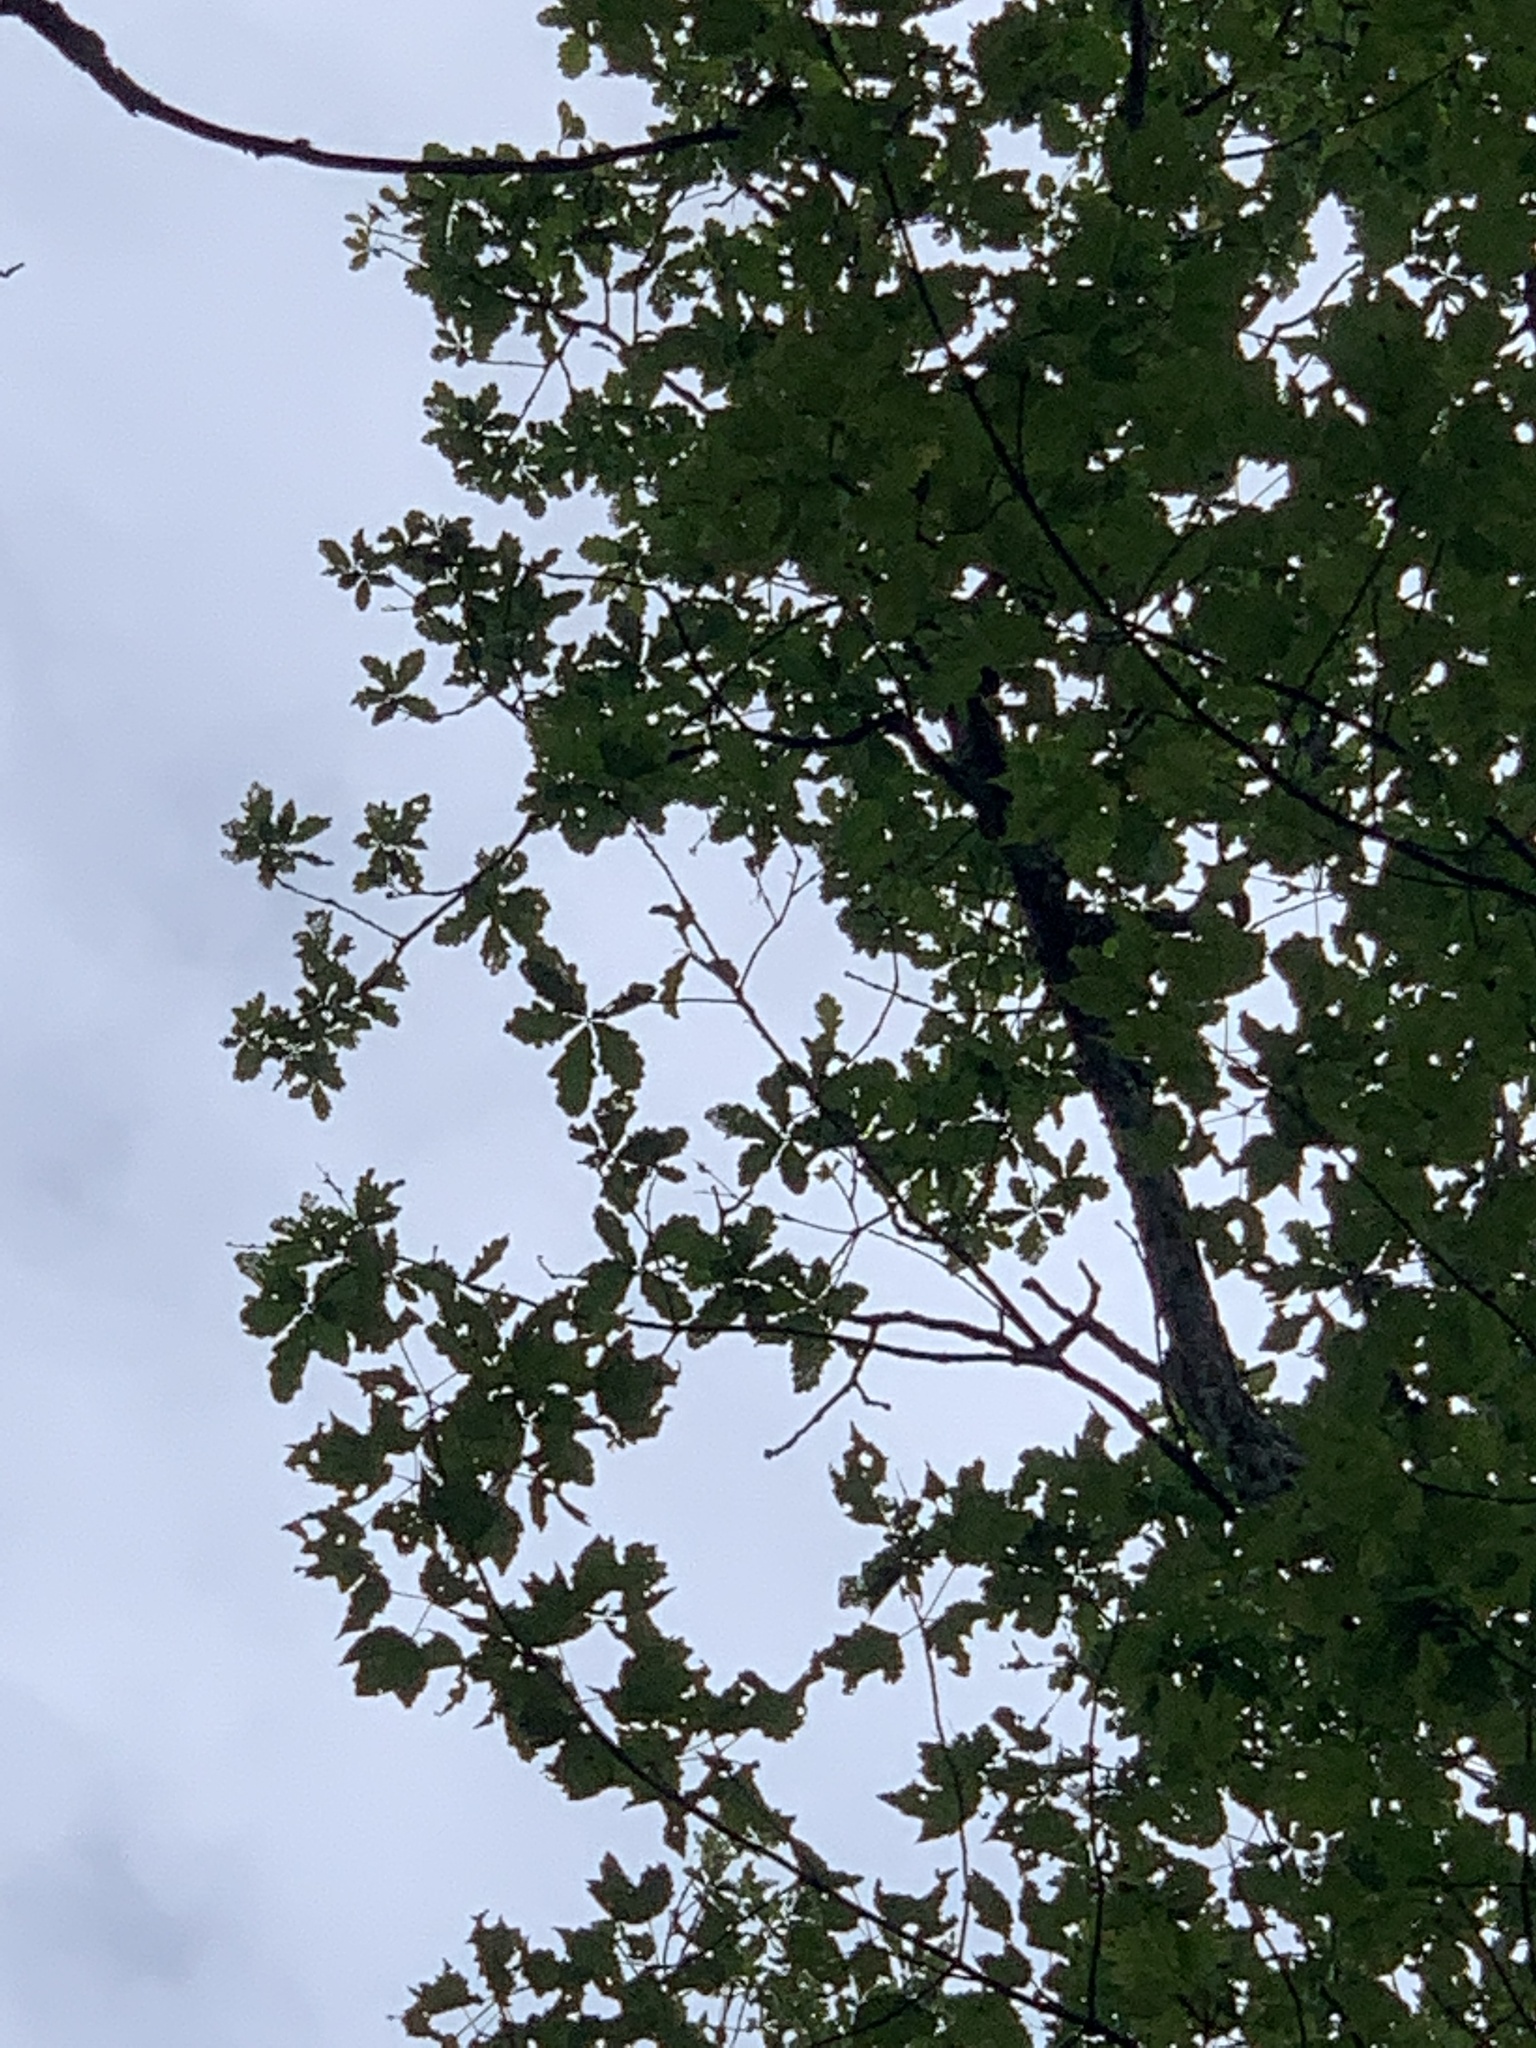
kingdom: Plantae
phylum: Tracheophyta
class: Magnoliopsida
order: Fagales
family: Fagaceae
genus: Quercus
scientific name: Quercus alba
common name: White oak
